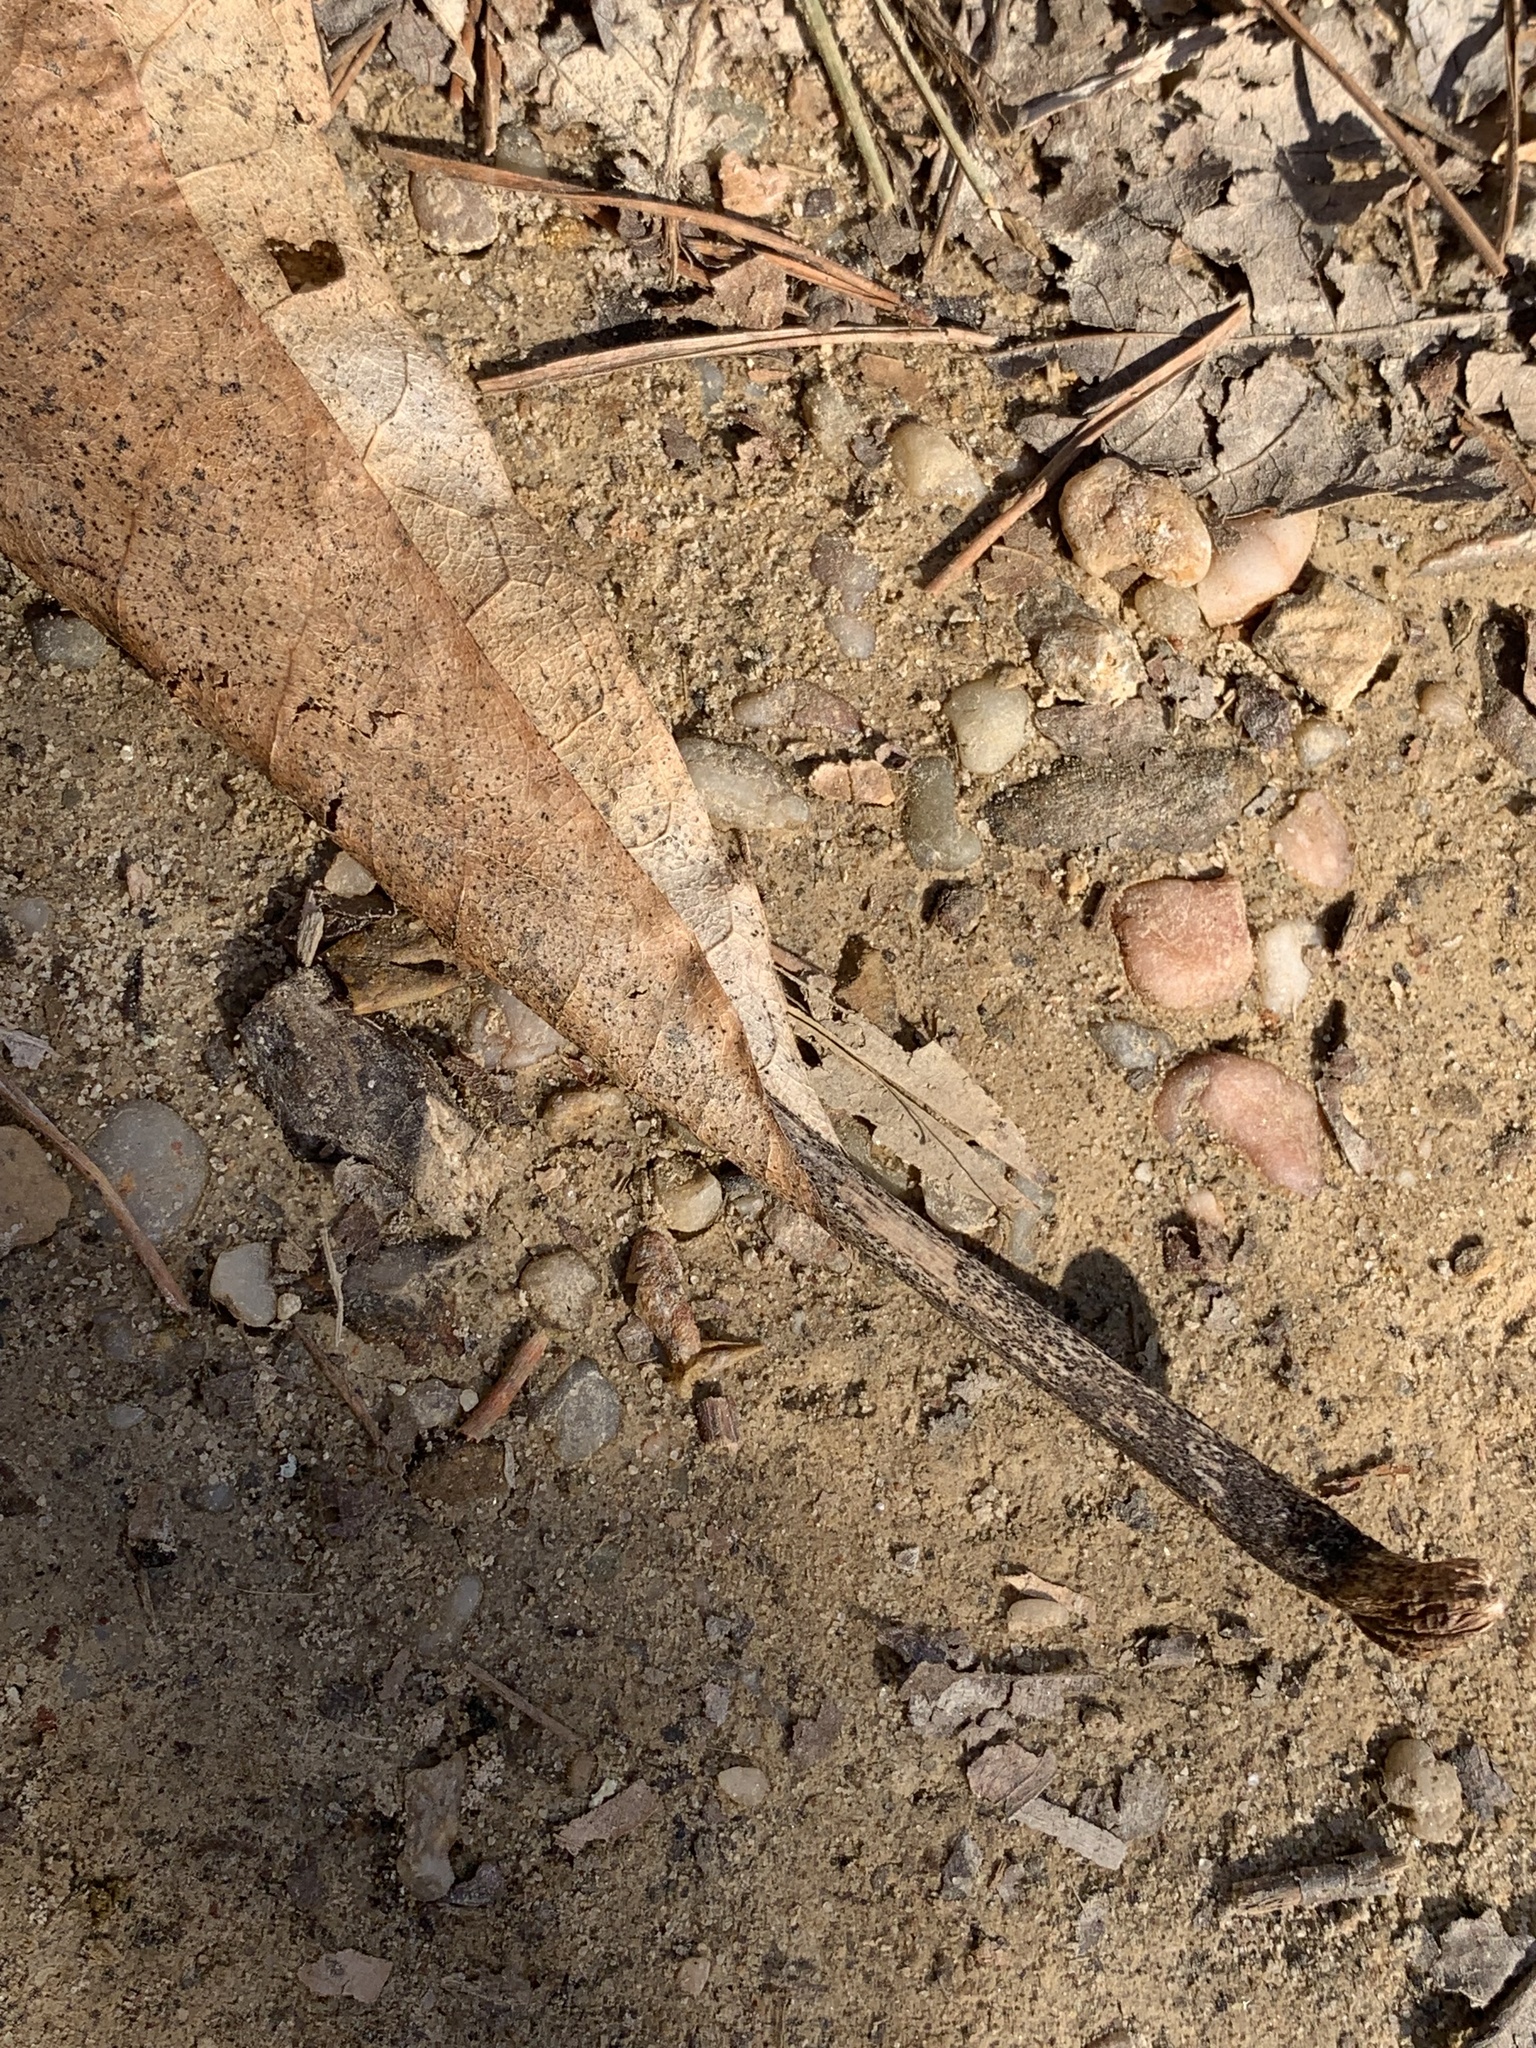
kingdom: Plantae
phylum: Tracheophyta
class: Magnoliopsida
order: Magnoliales
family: Magnoliaceae
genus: Magnolia
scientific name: Magnolia tripetala
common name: Umbrella magnolia
